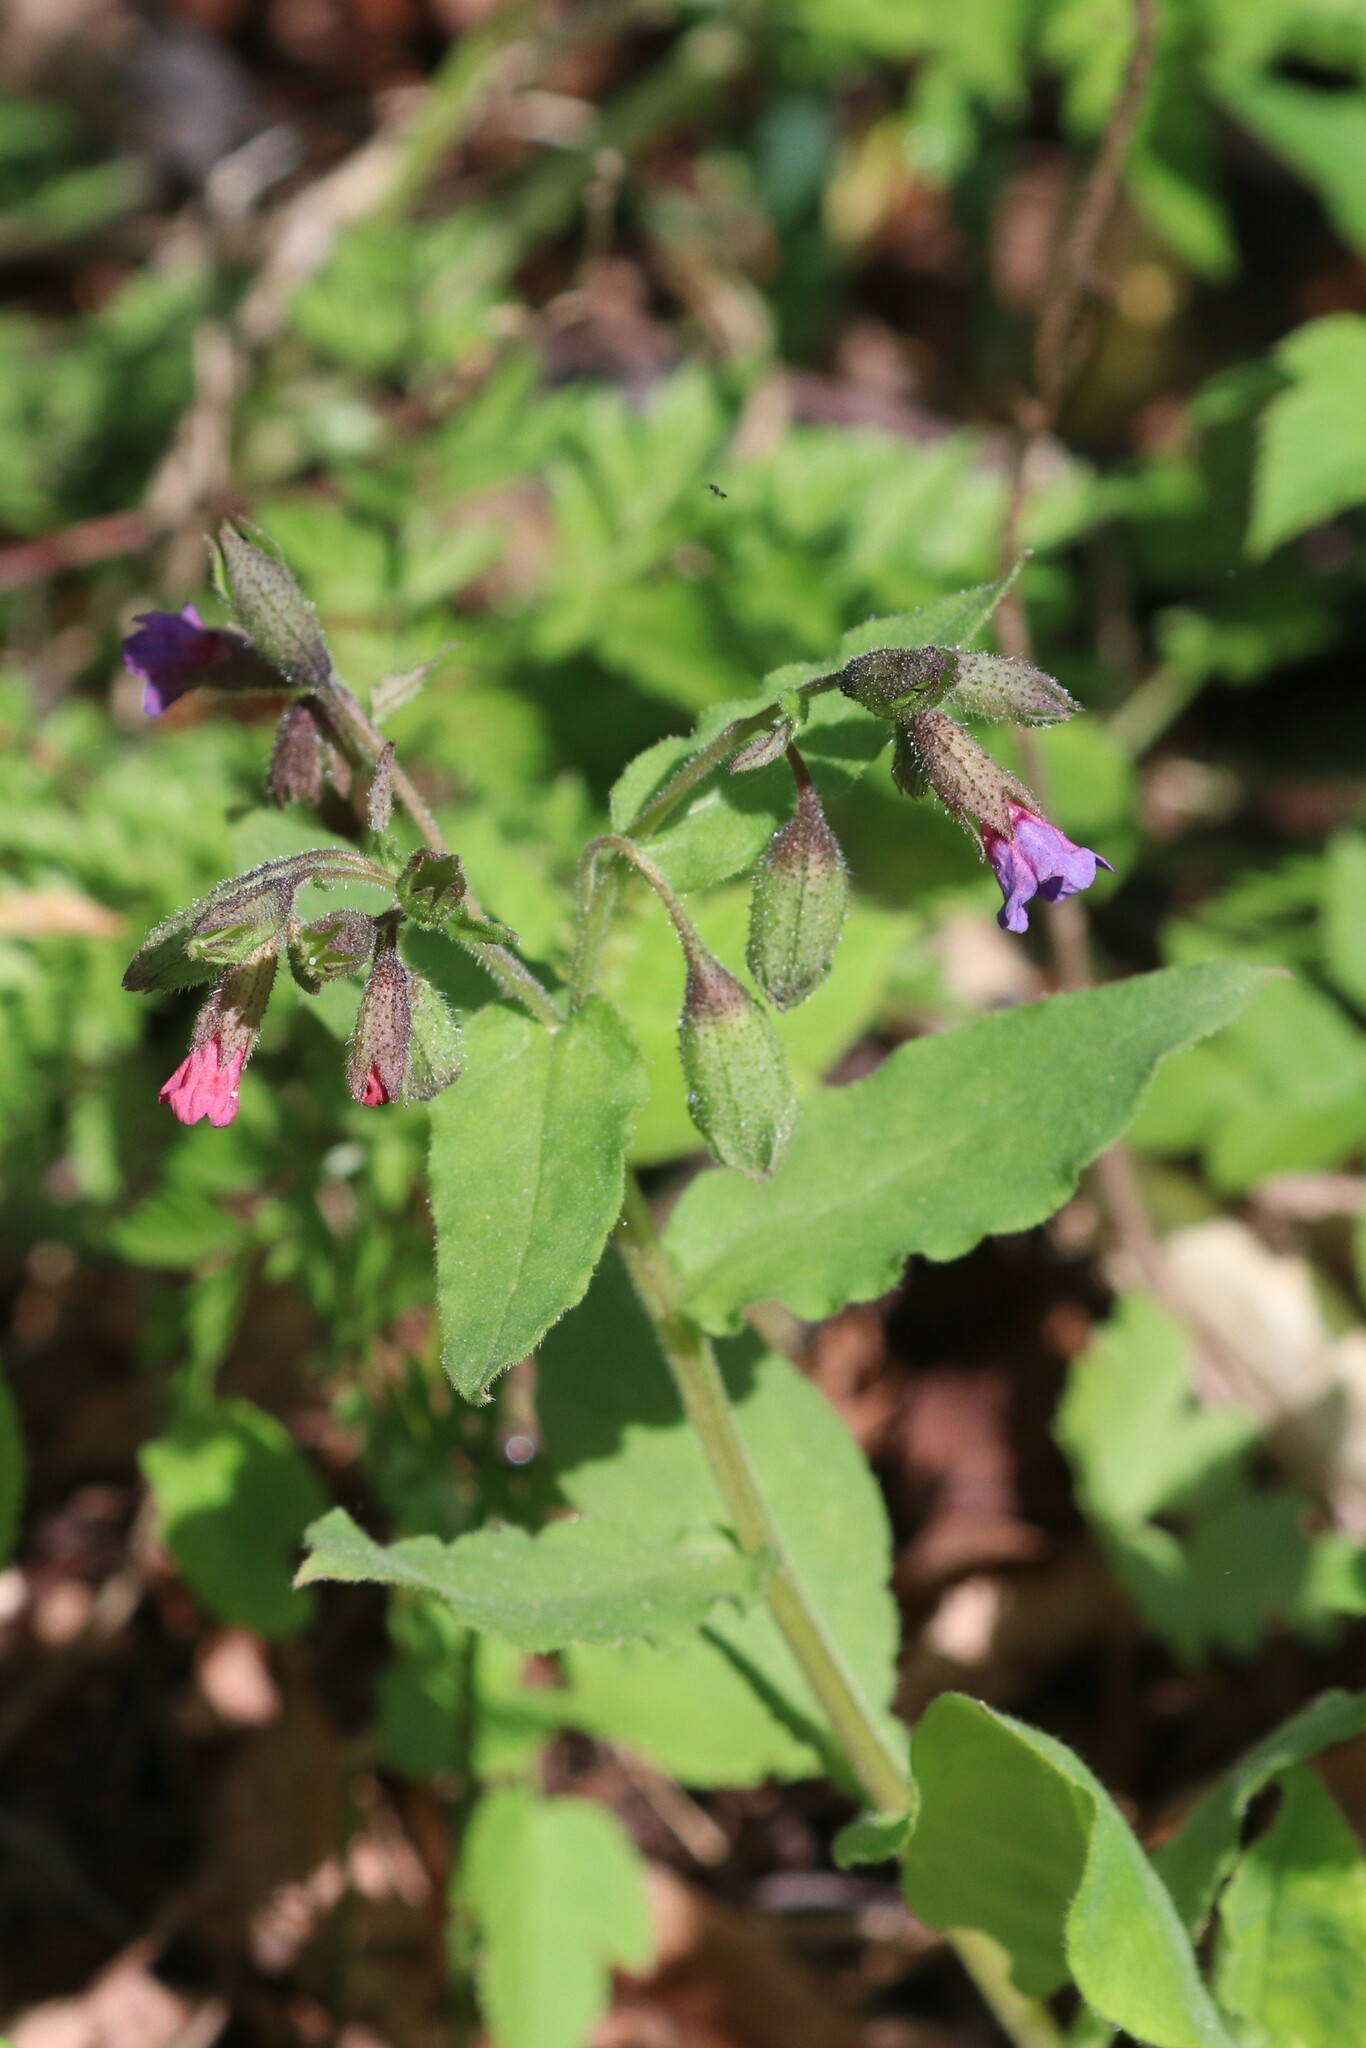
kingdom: Plantae
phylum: Tracheophyta
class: Magnoliopsida
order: Boraginales
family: Boraginaceae
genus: Pulmonaria
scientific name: Pulmonaria obscura
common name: Suffolk lungwort
